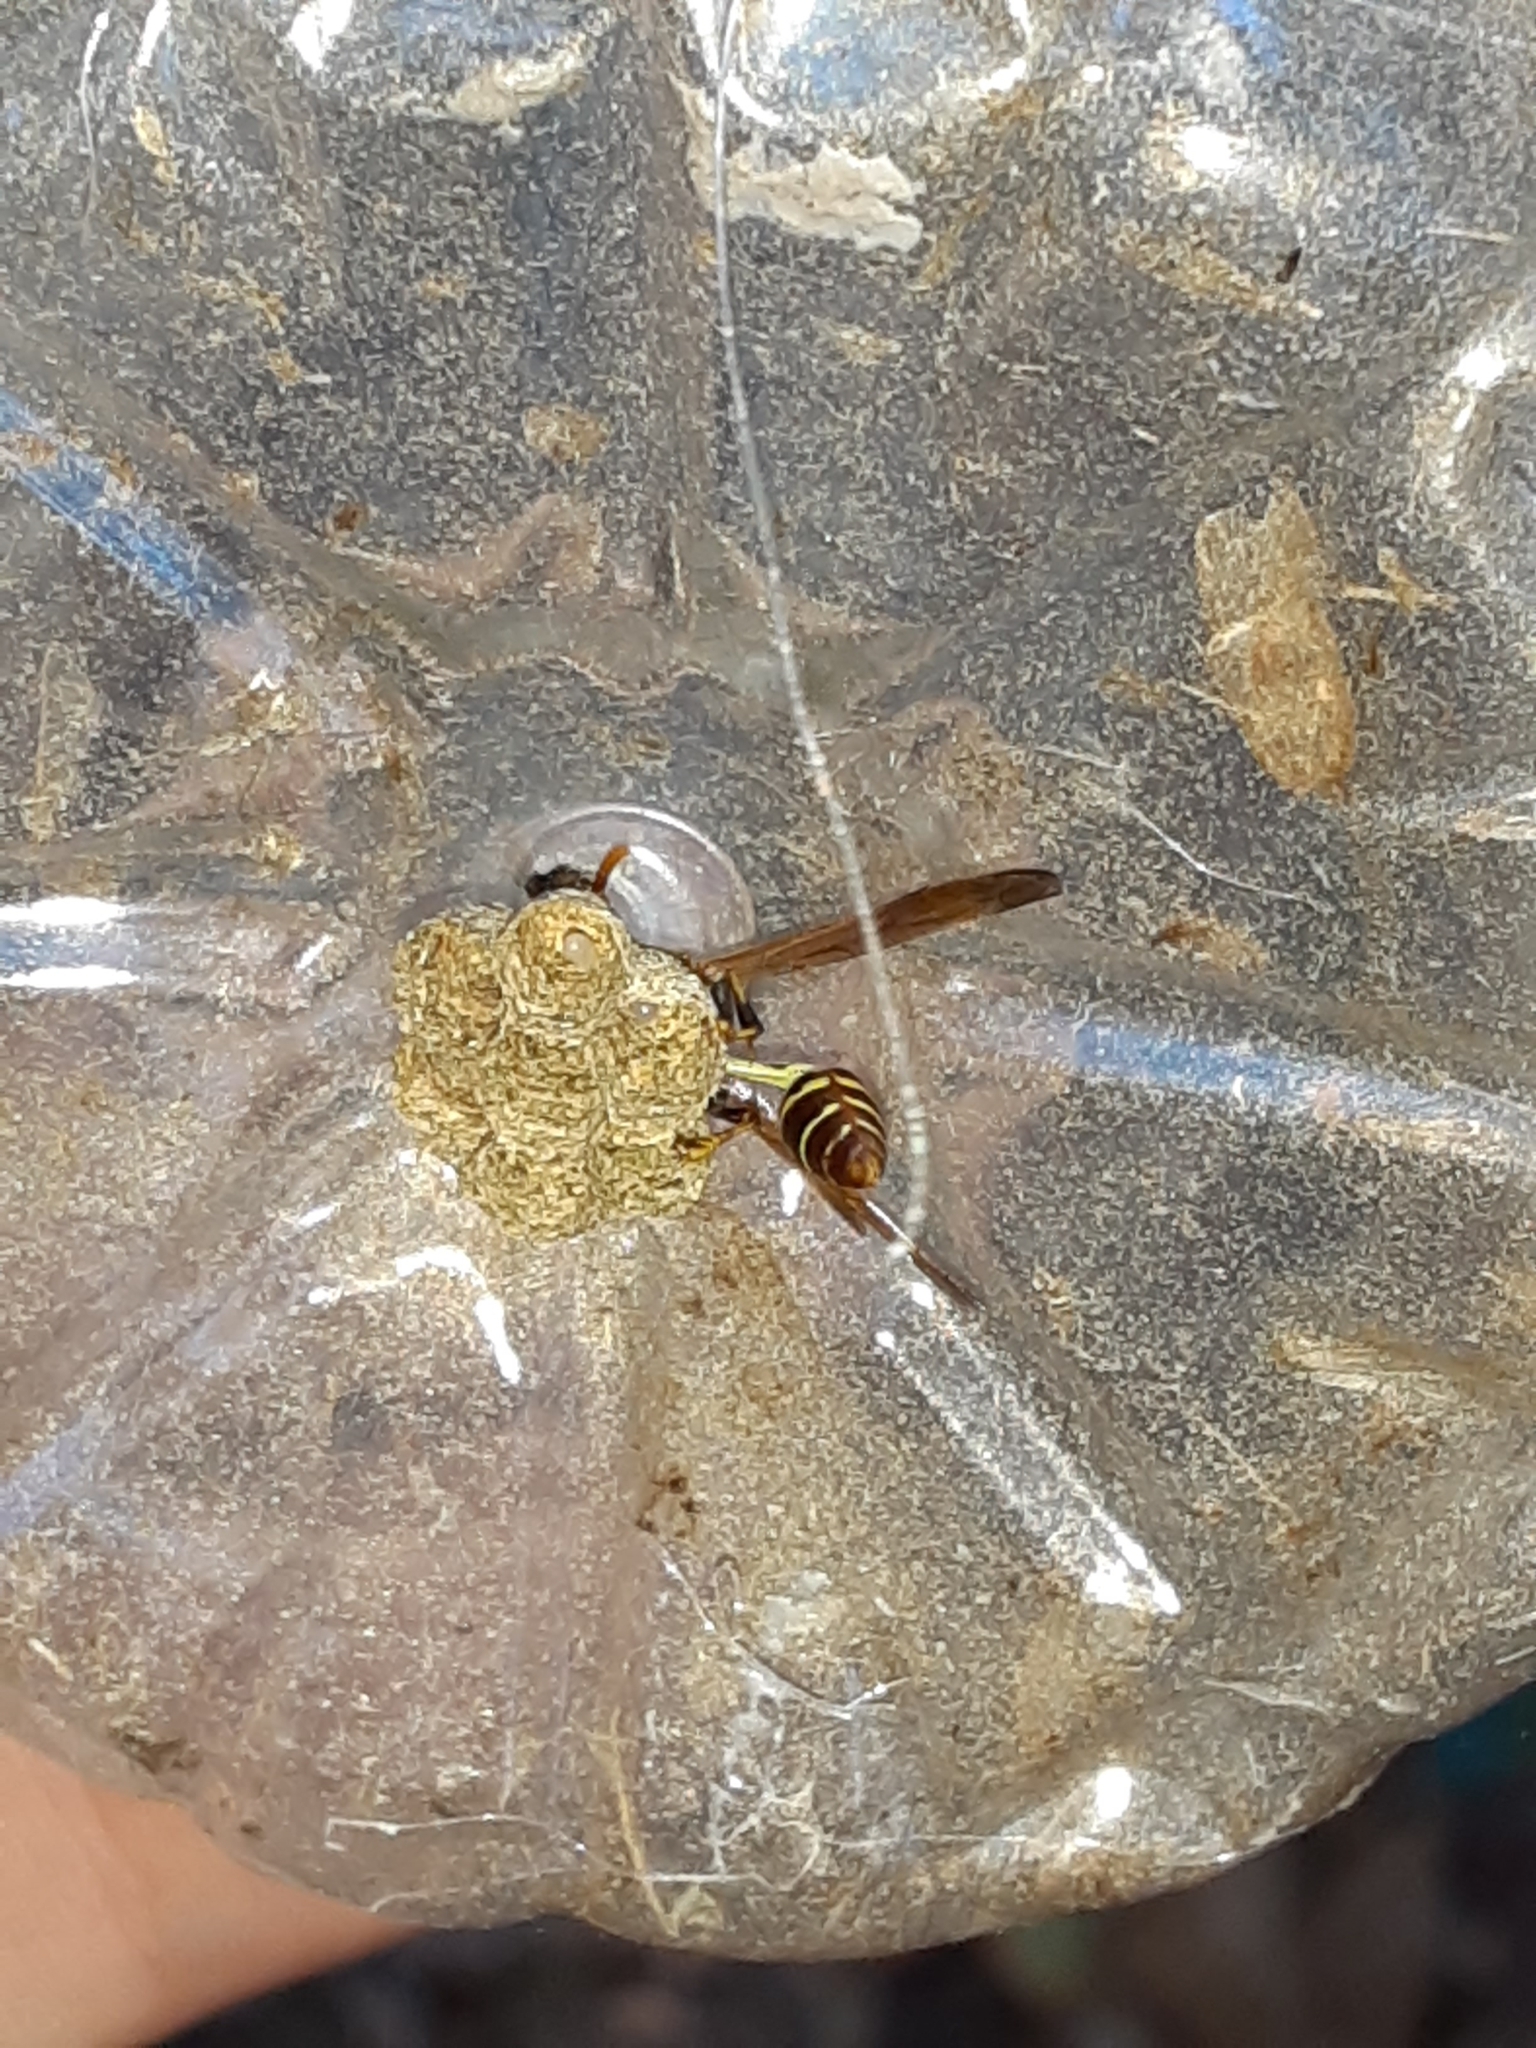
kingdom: Animalia
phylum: Arthropoda
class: Insecta
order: Hymenoptera
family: Vespidae
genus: Mischocyttarus
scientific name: Mischocyttarus mexicanus
